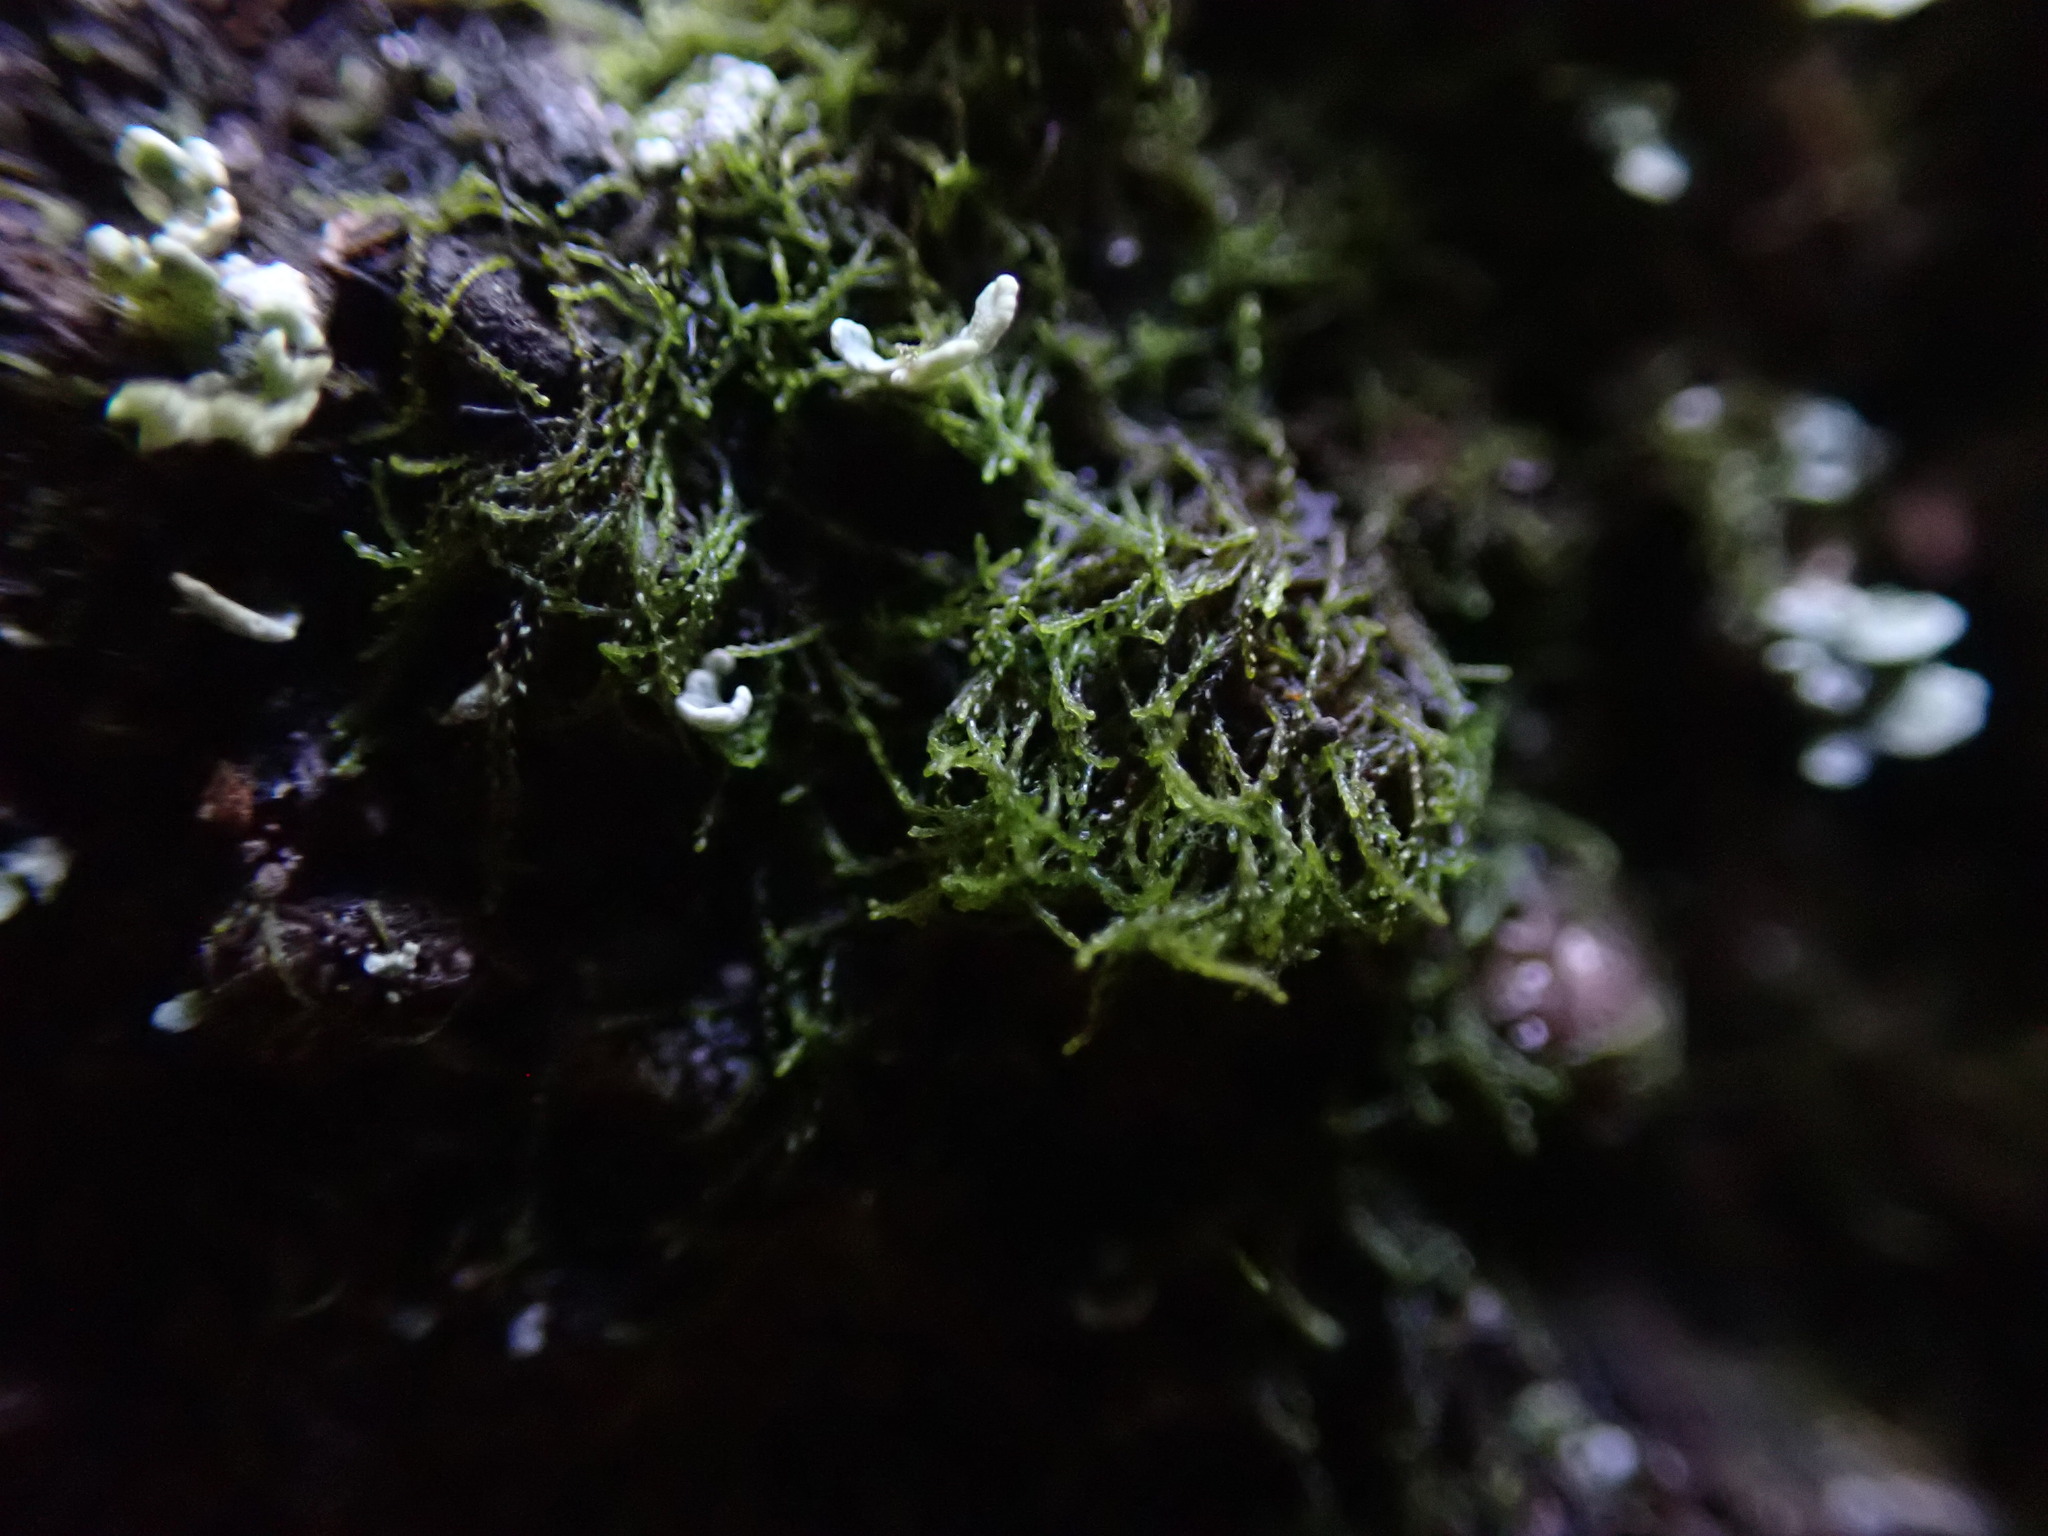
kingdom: Plantae
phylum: Marchantiophyta
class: Jungermanniopsida
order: Jungermanniales
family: Cephaloziellaceae
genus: Cephaloziella
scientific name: Cephaloziella divaricata
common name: Spreading threadwort
